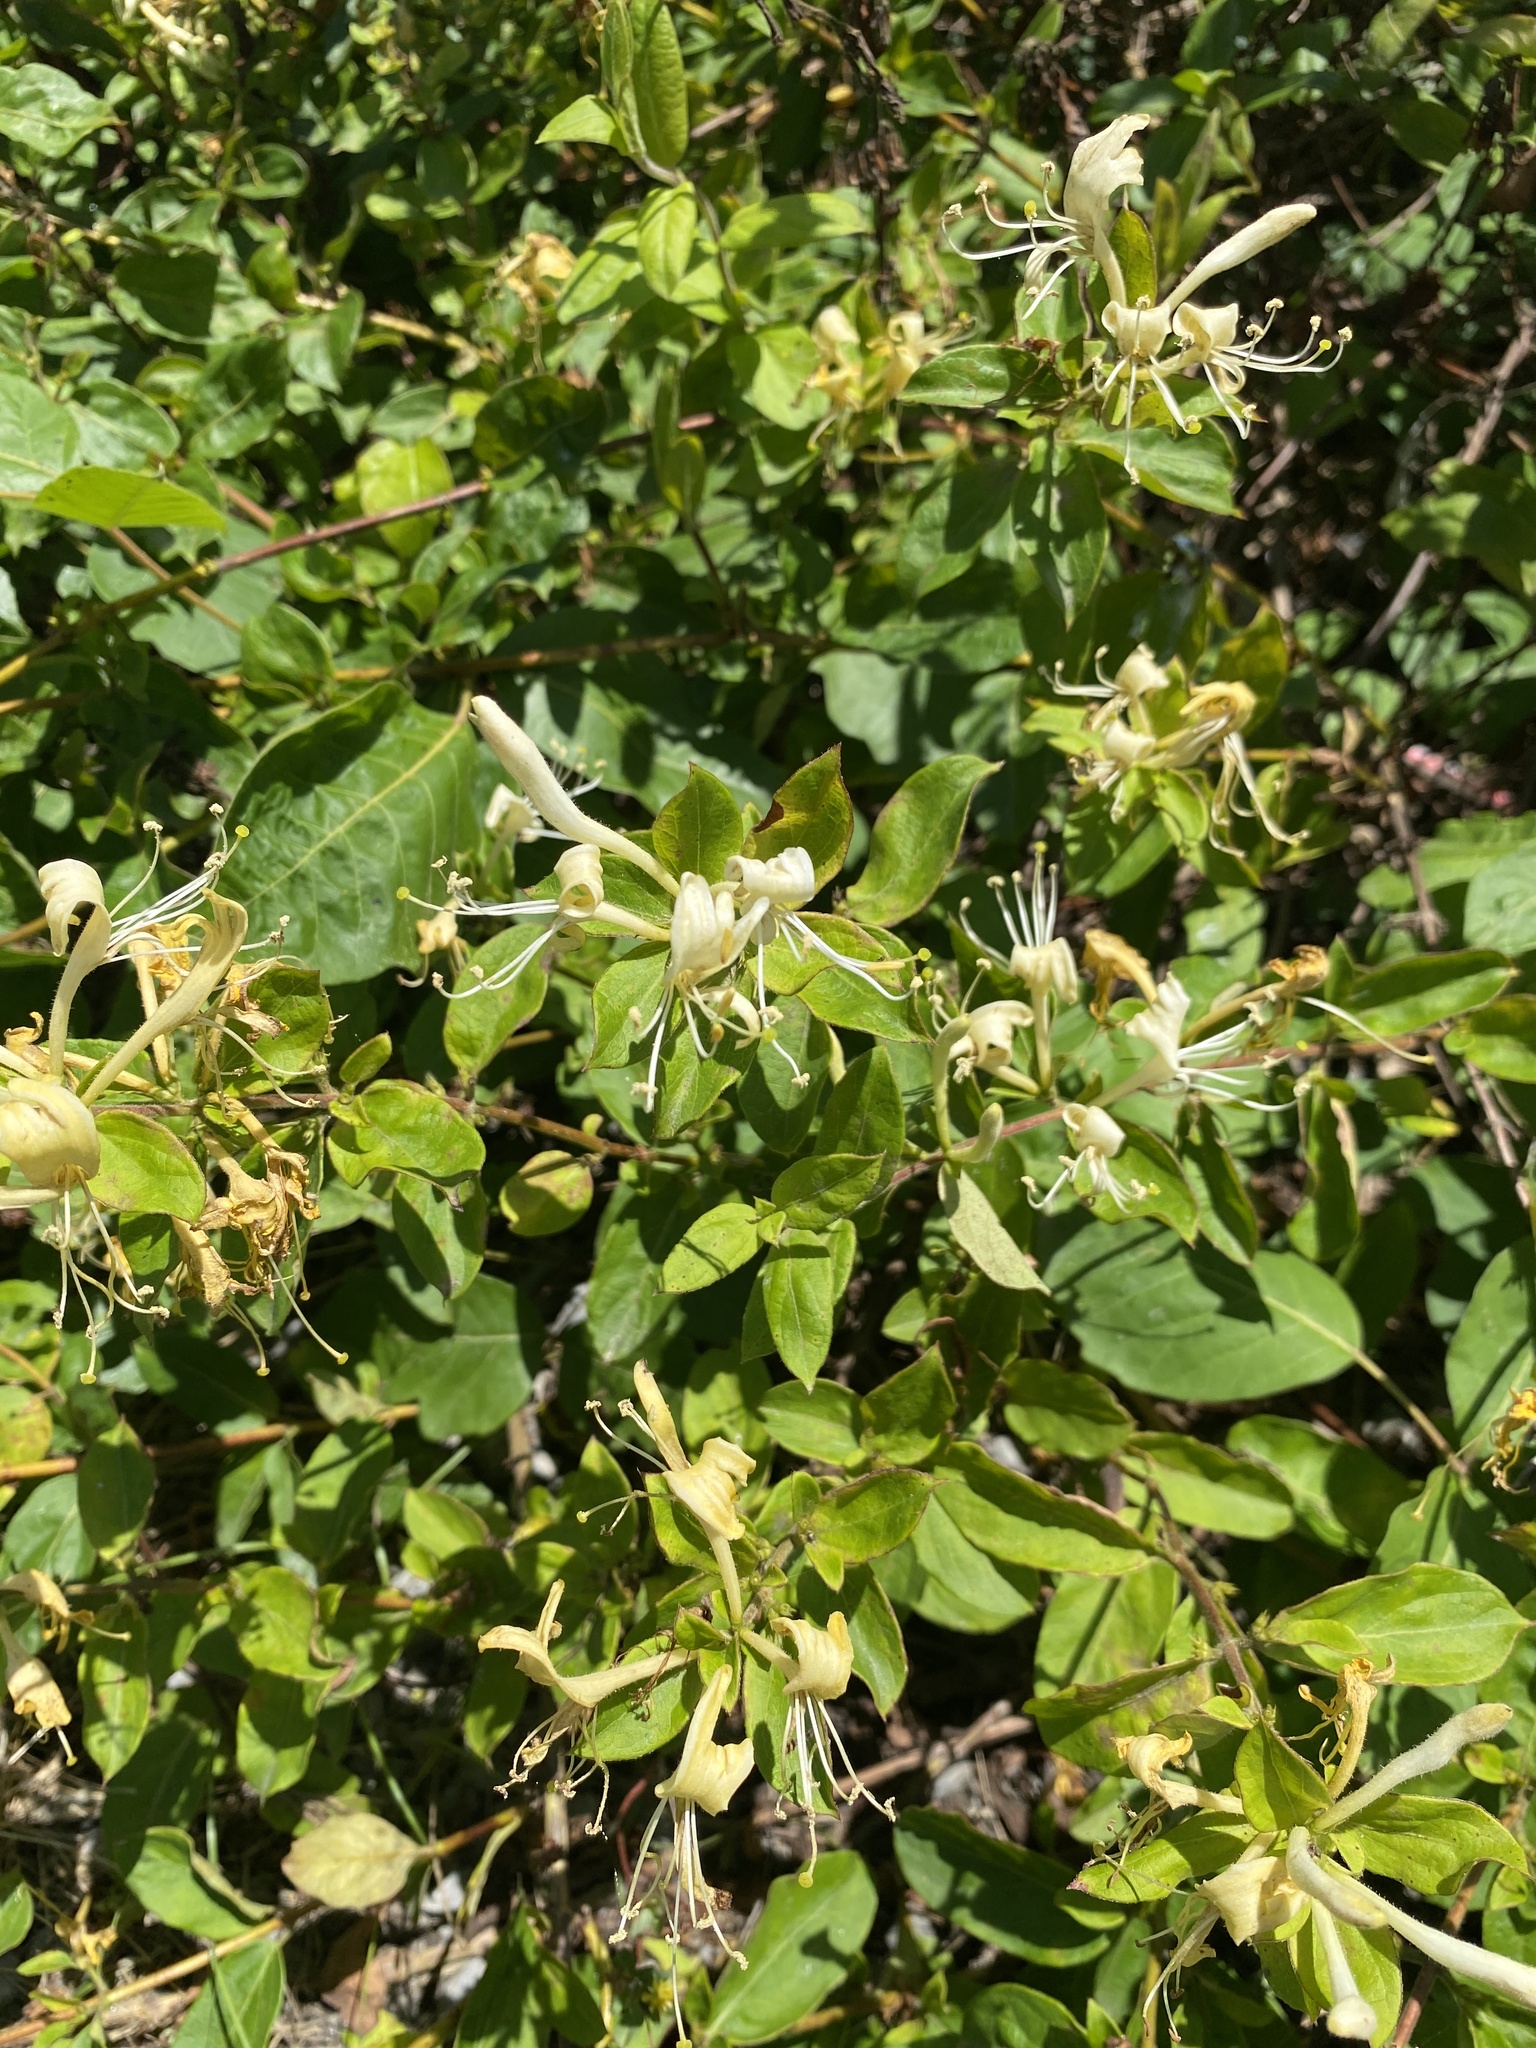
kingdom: Plantae
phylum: Tracheophyta
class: Magnoliopsida
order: Dipsacales
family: Caprifoliaceae
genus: Lonicera
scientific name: Lonicera japonica
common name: Japanese honeysuckle
